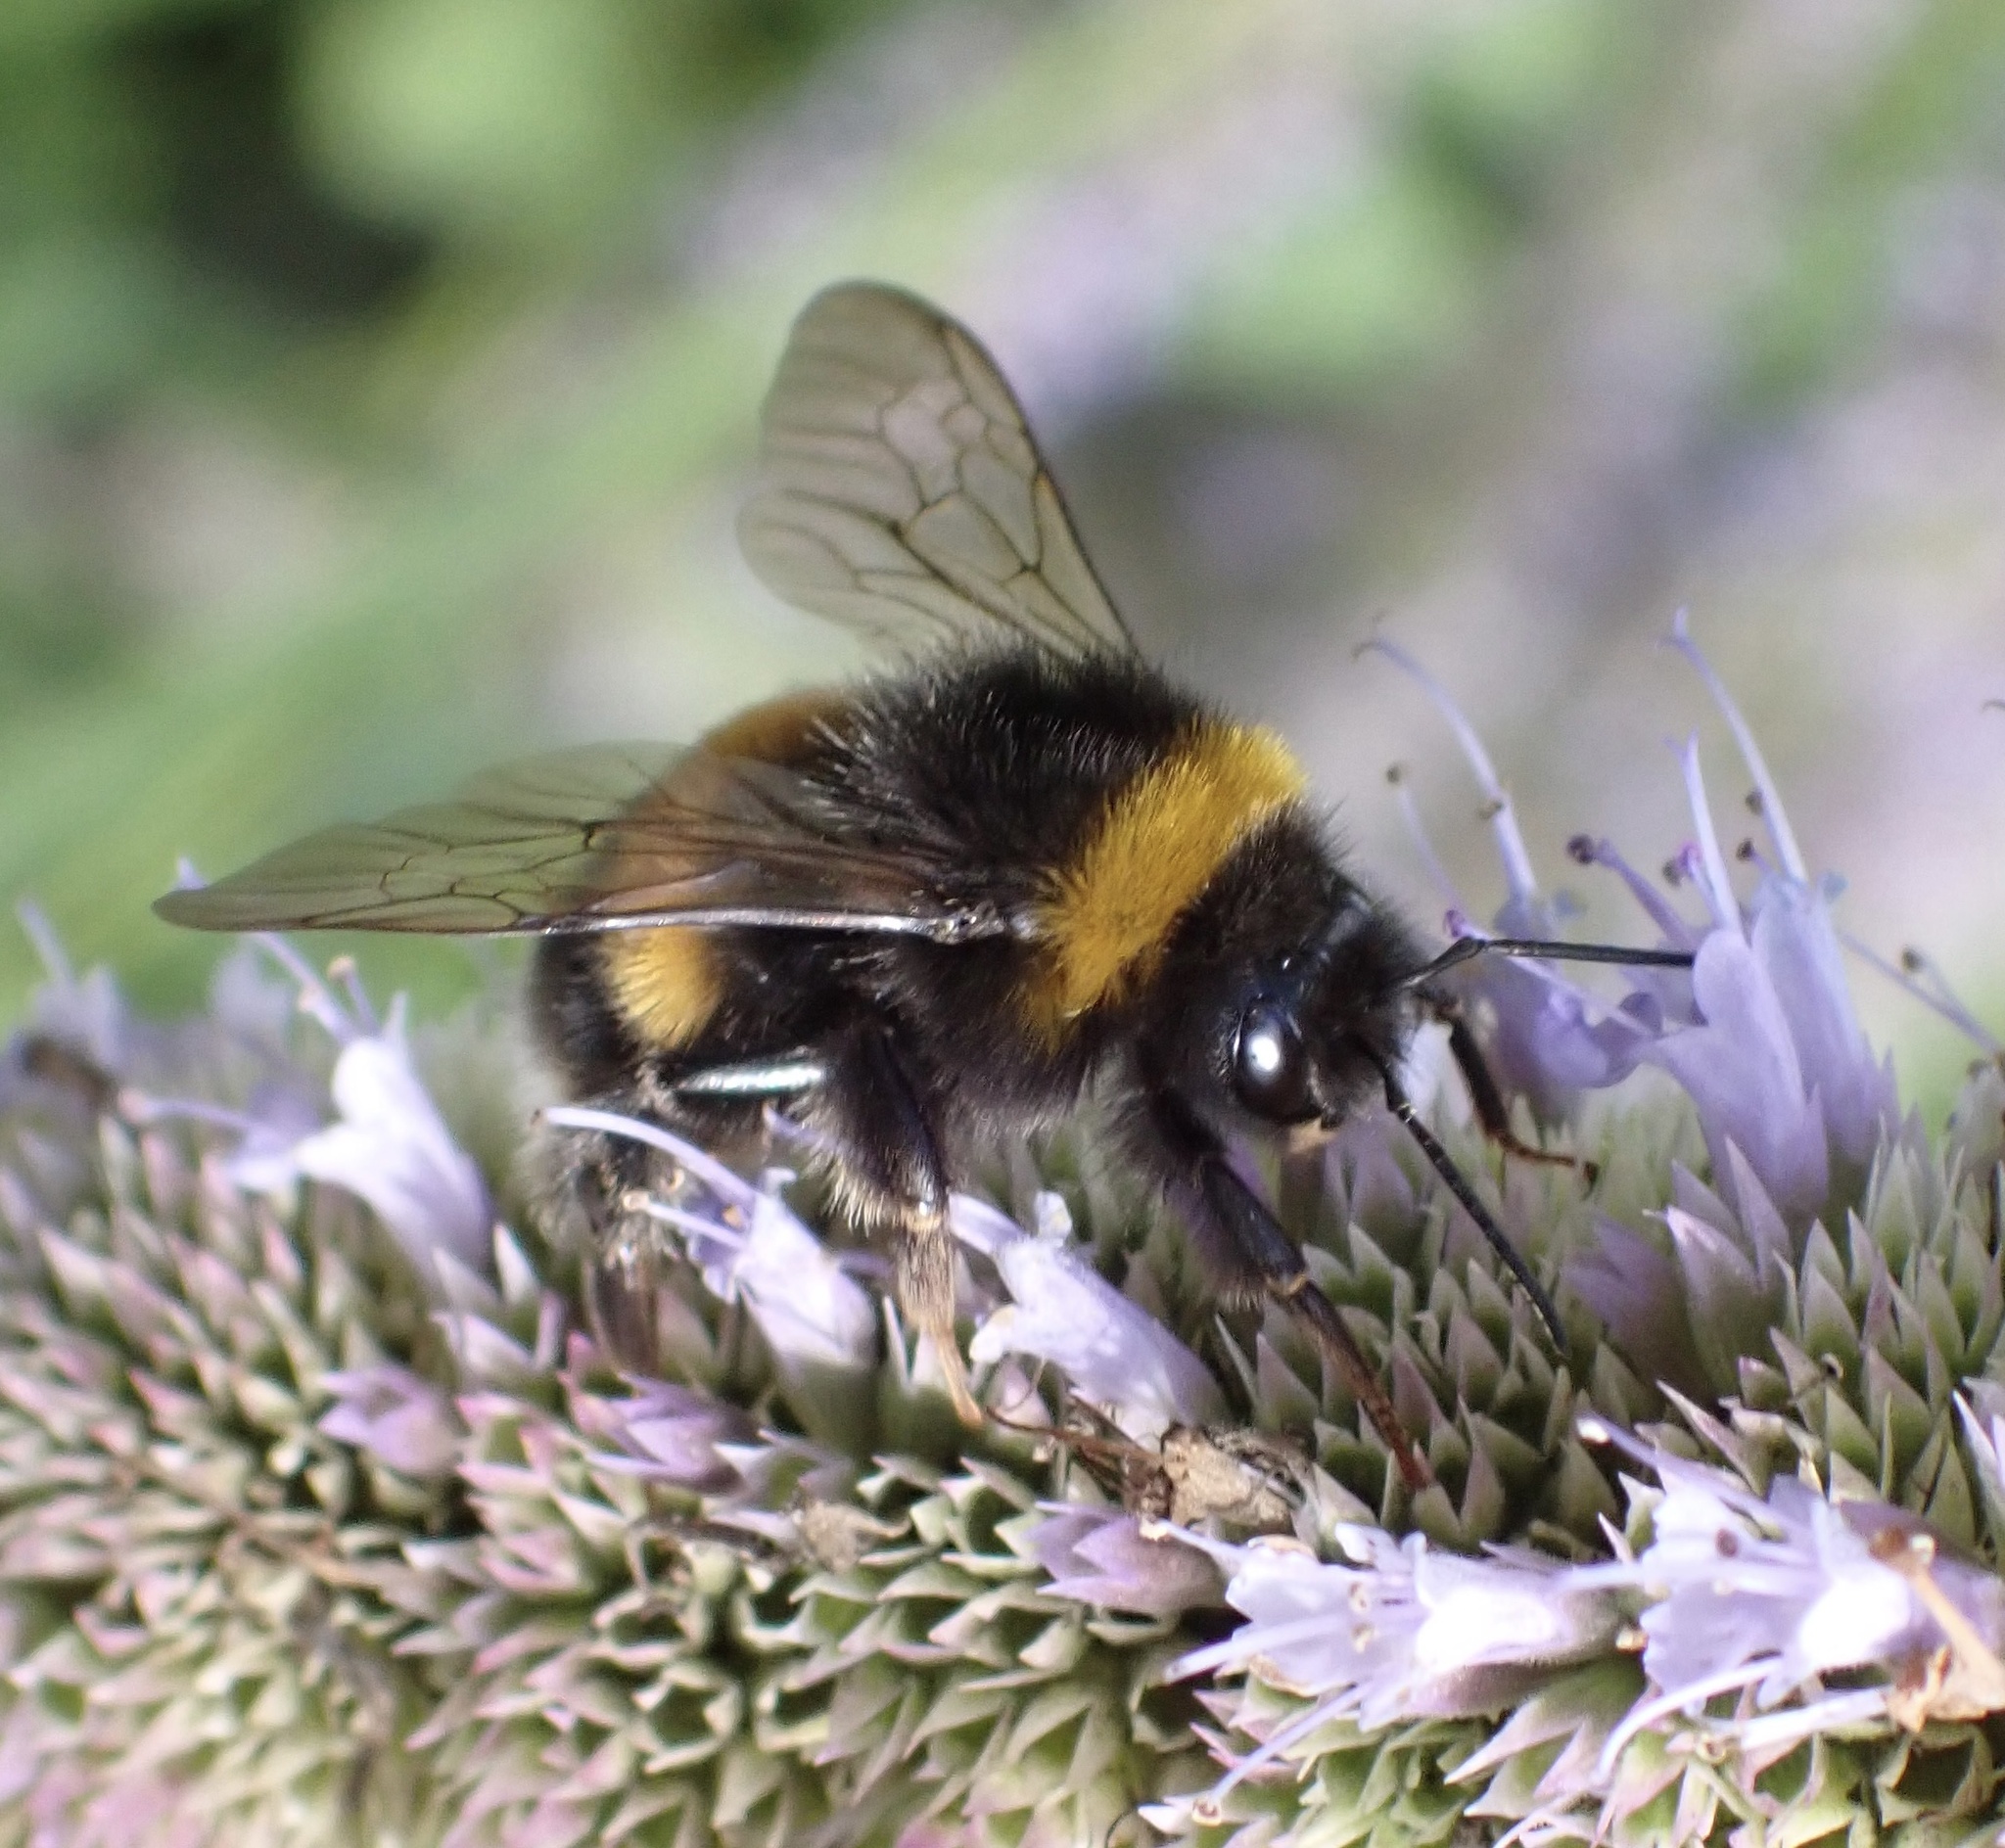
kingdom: Animalia
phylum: Arthropoda
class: Insecta
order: Hymenoptera
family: Apidae
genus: Bombus
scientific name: Bombus terrestris
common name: Buff-tailed bumblebee
